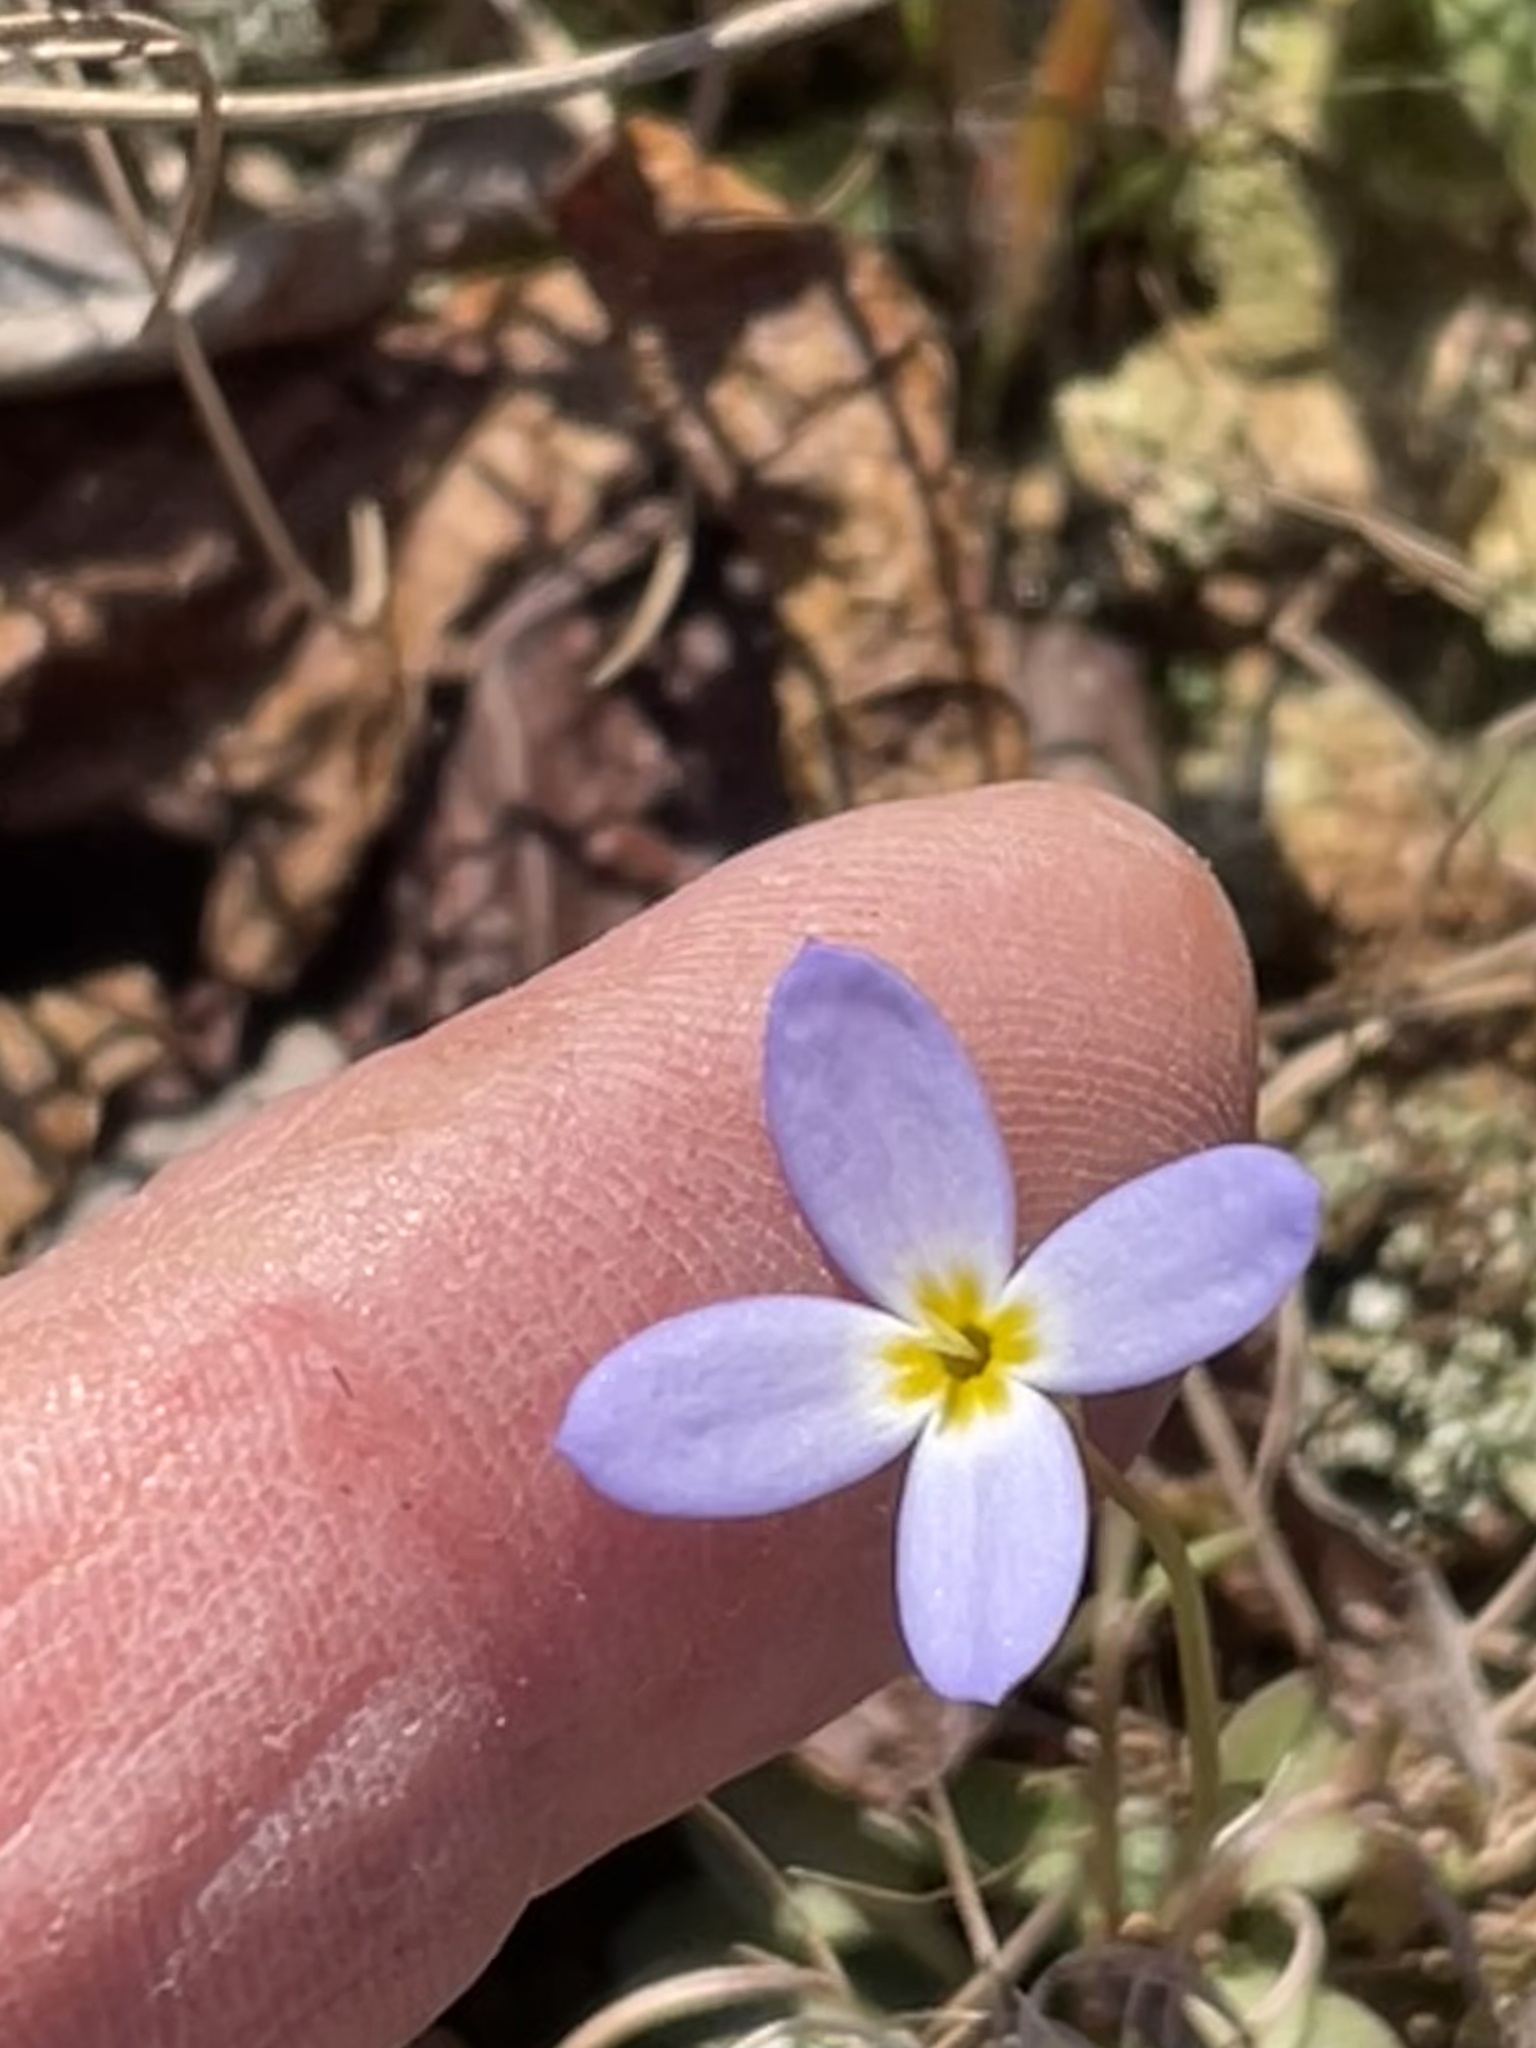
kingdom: Plantae
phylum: Tracheophyta
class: Magnoliopsida
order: Gentianales
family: Rubiaceae
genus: Houstonia
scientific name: Houstonia caerulea
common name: Bluets
